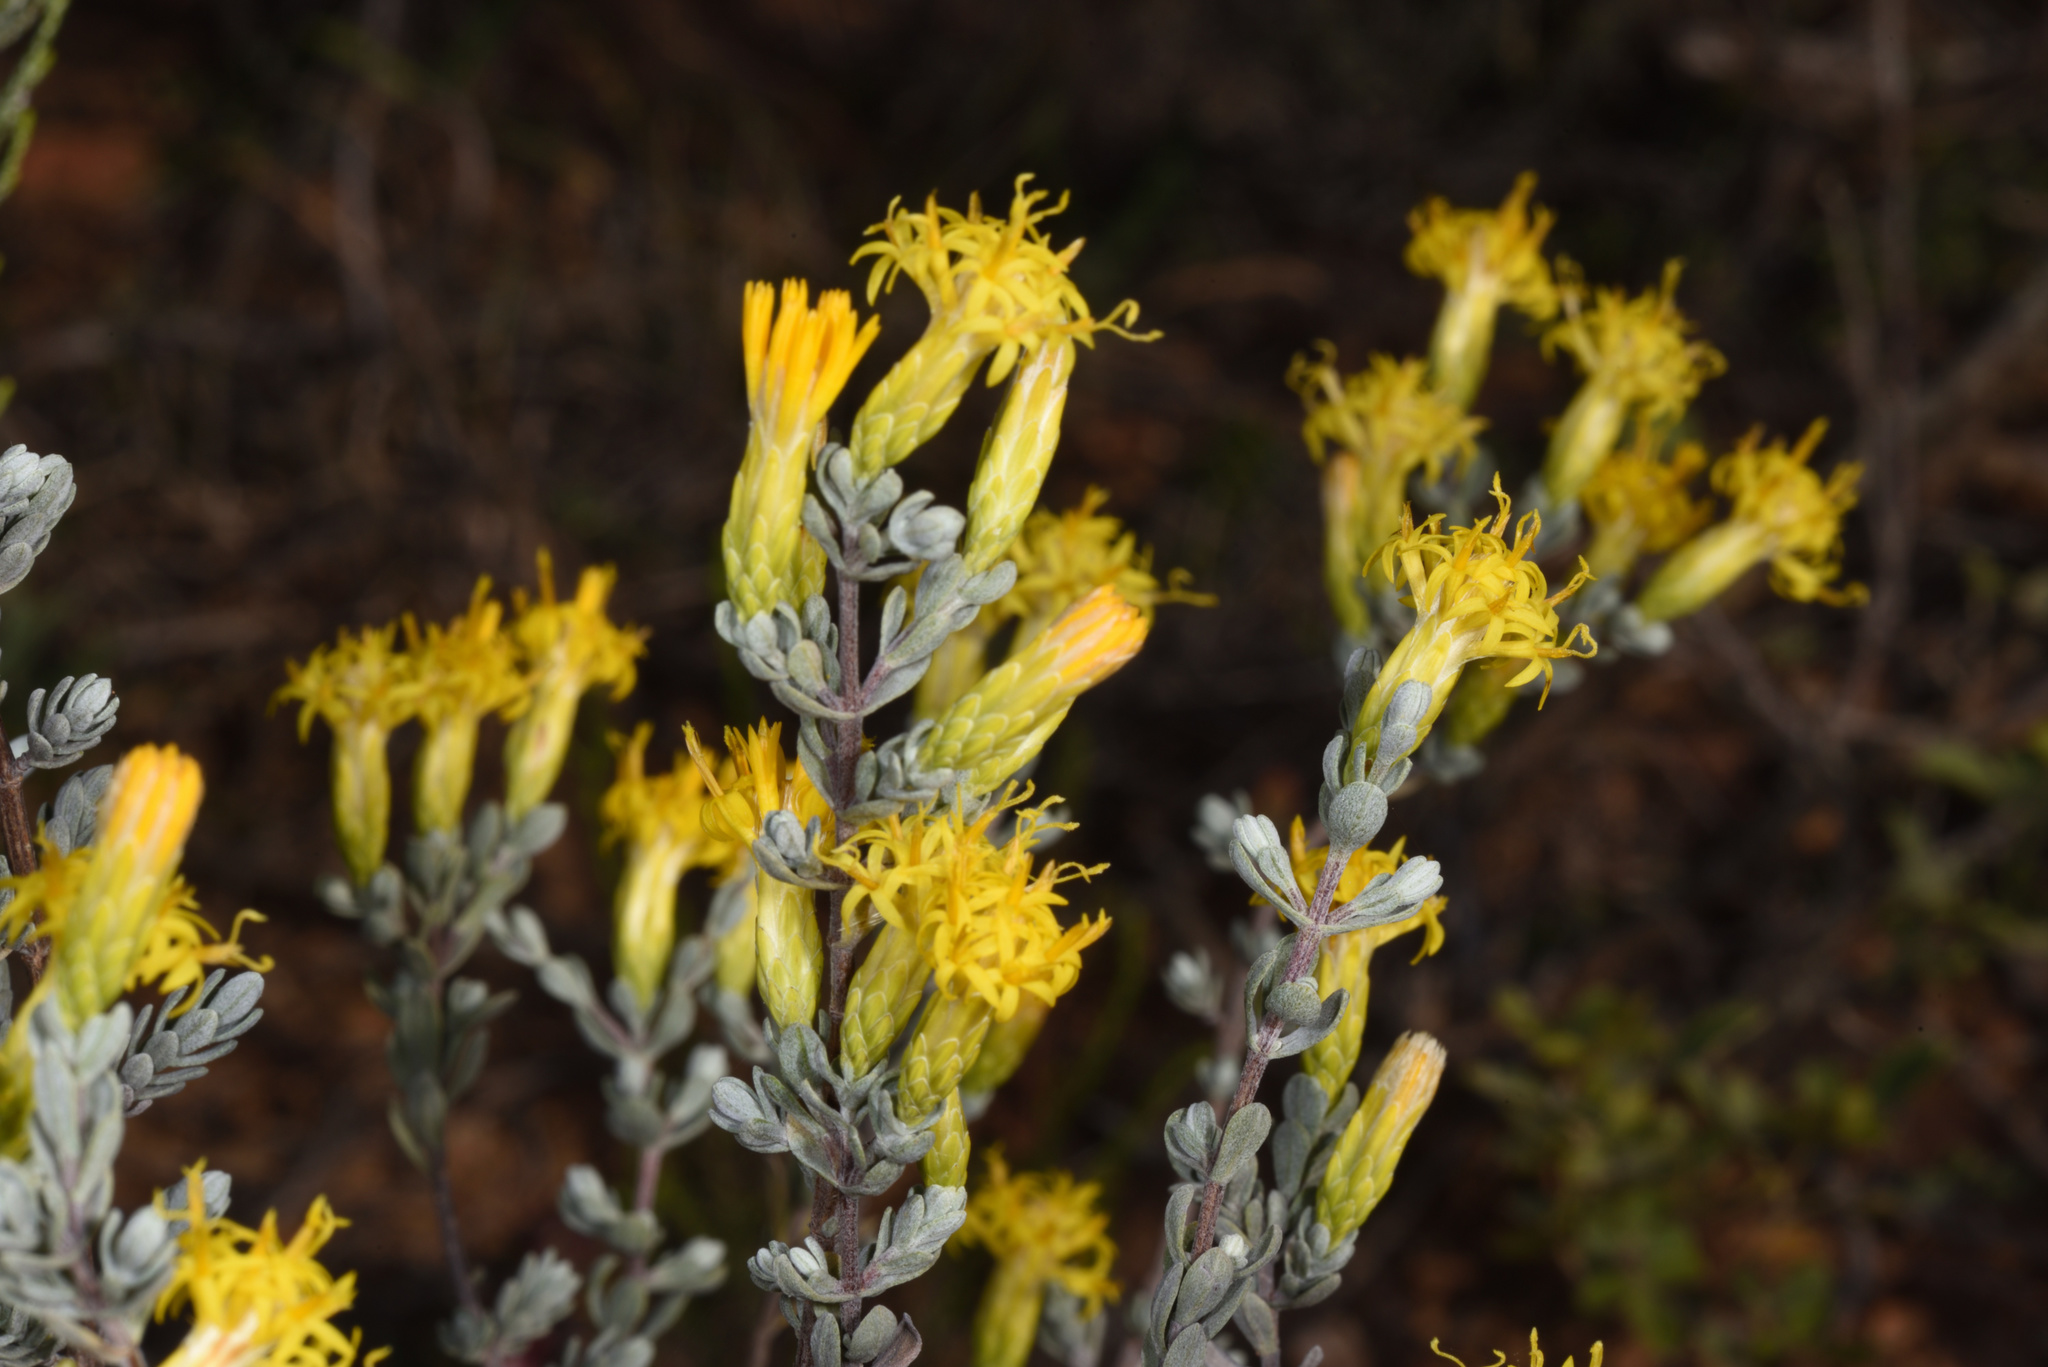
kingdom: Plantae
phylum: Tracheophyta
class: Magnoliopsida
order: Asterales
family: Asteraceae
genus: Pteronia
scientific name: Pteronia incana
